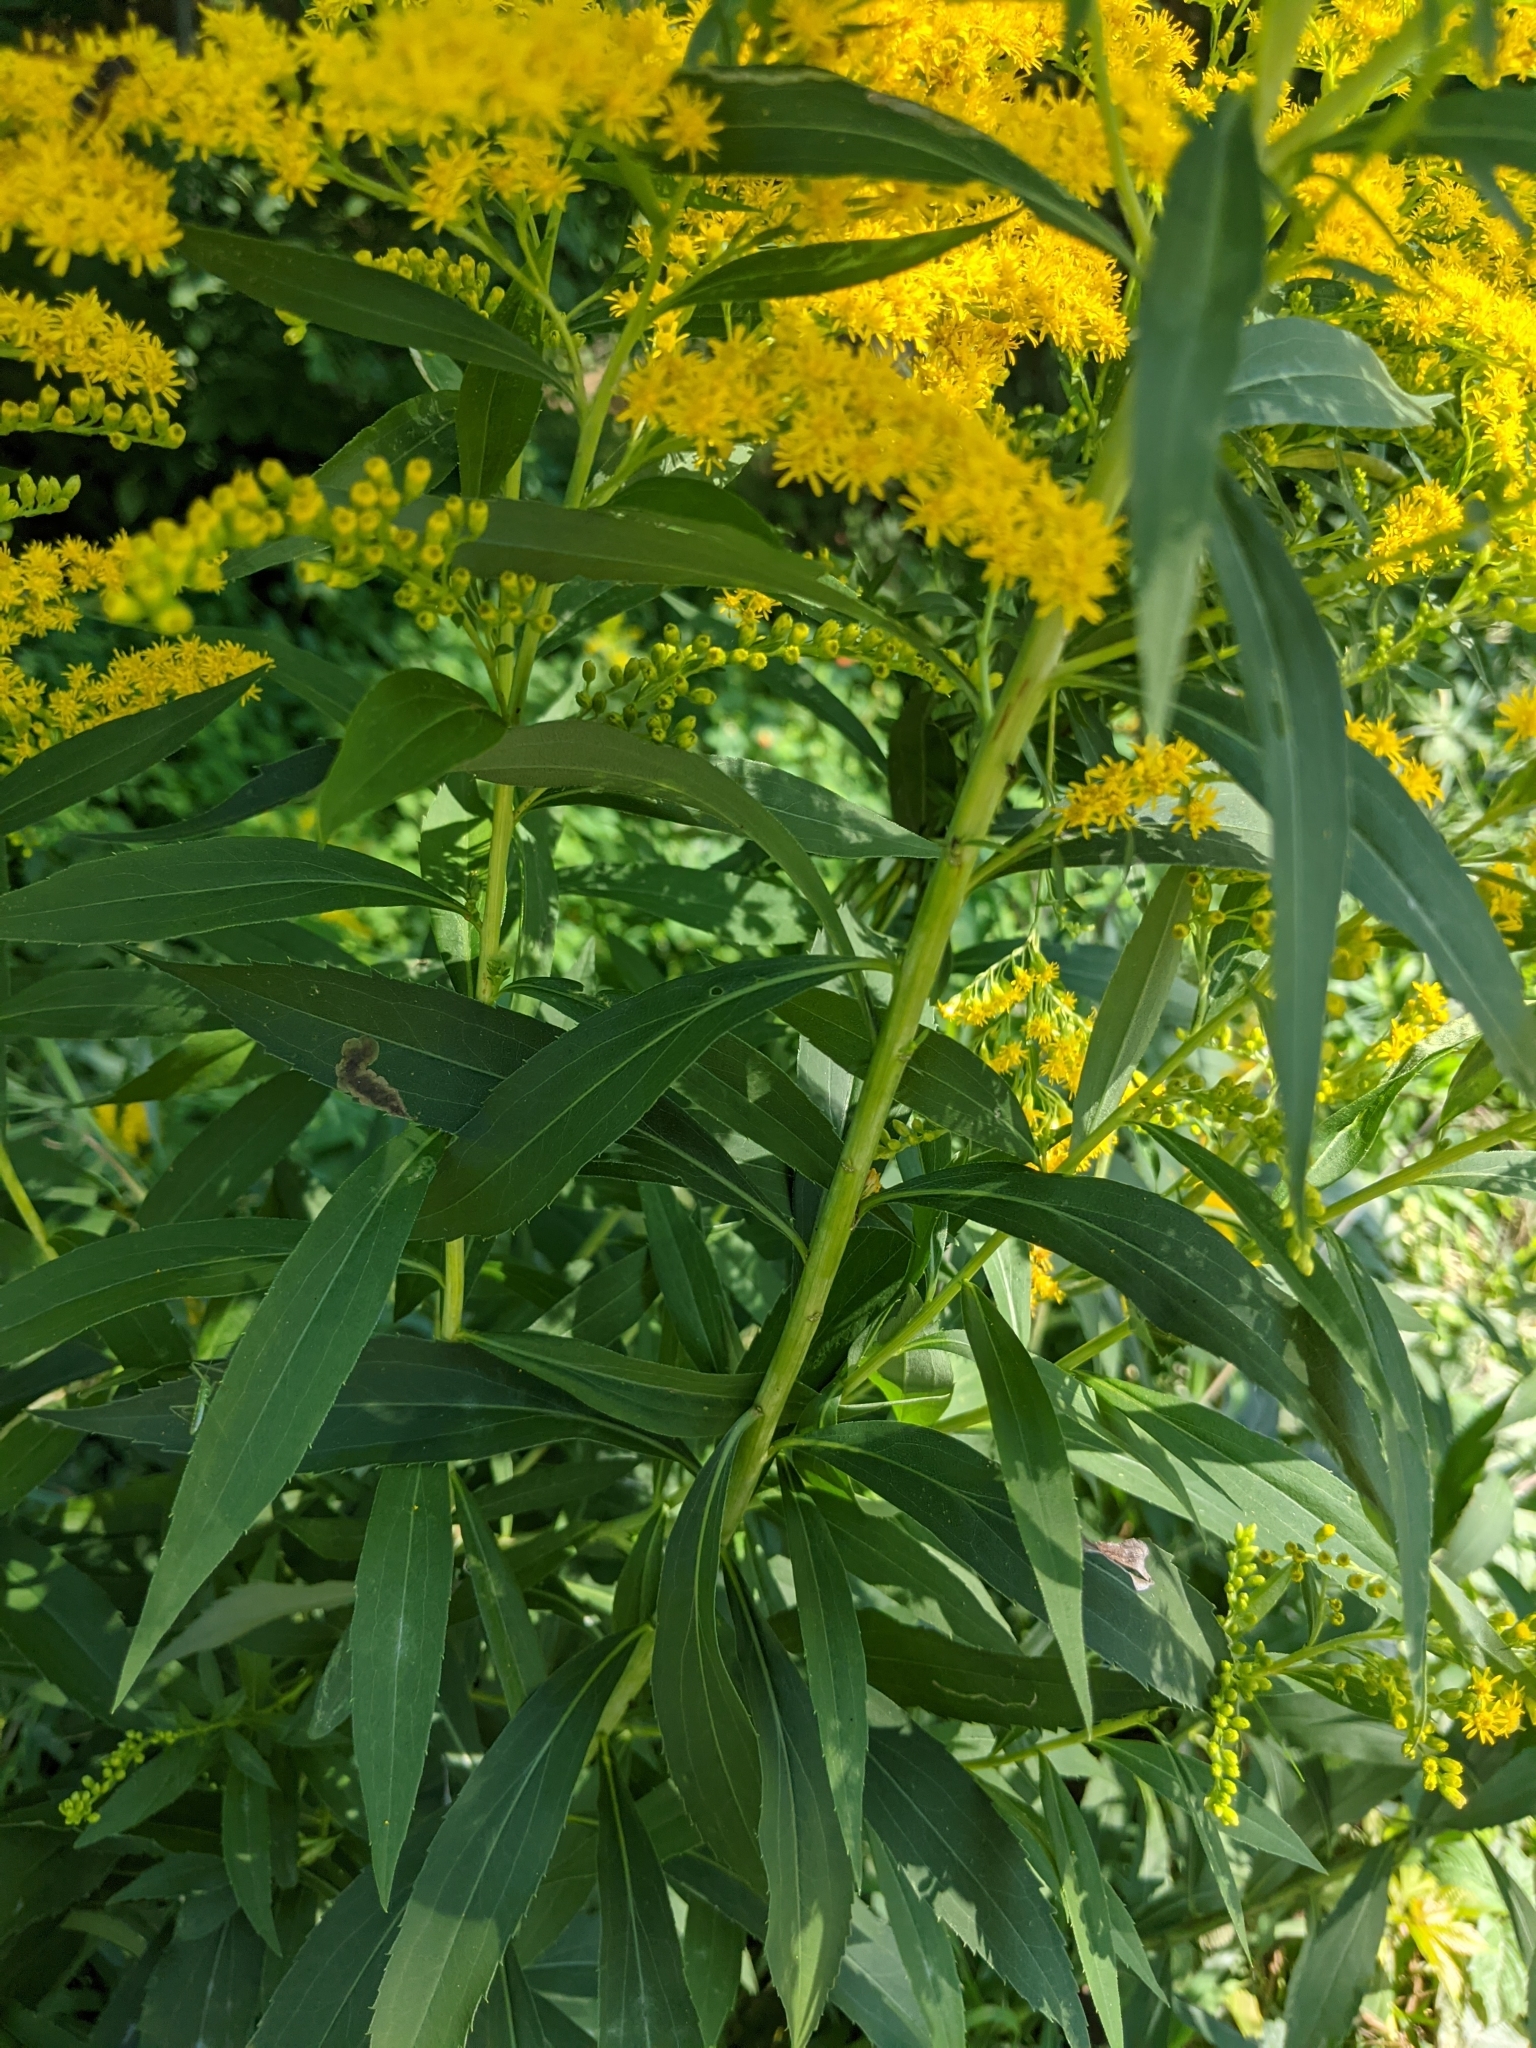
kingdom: Plantae
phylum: Tracheophyta
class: Magnoliopsida
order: Asterales
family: Asteraceae
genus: Solidago
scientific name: Solidago gigantea
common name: Giant goldenrod
